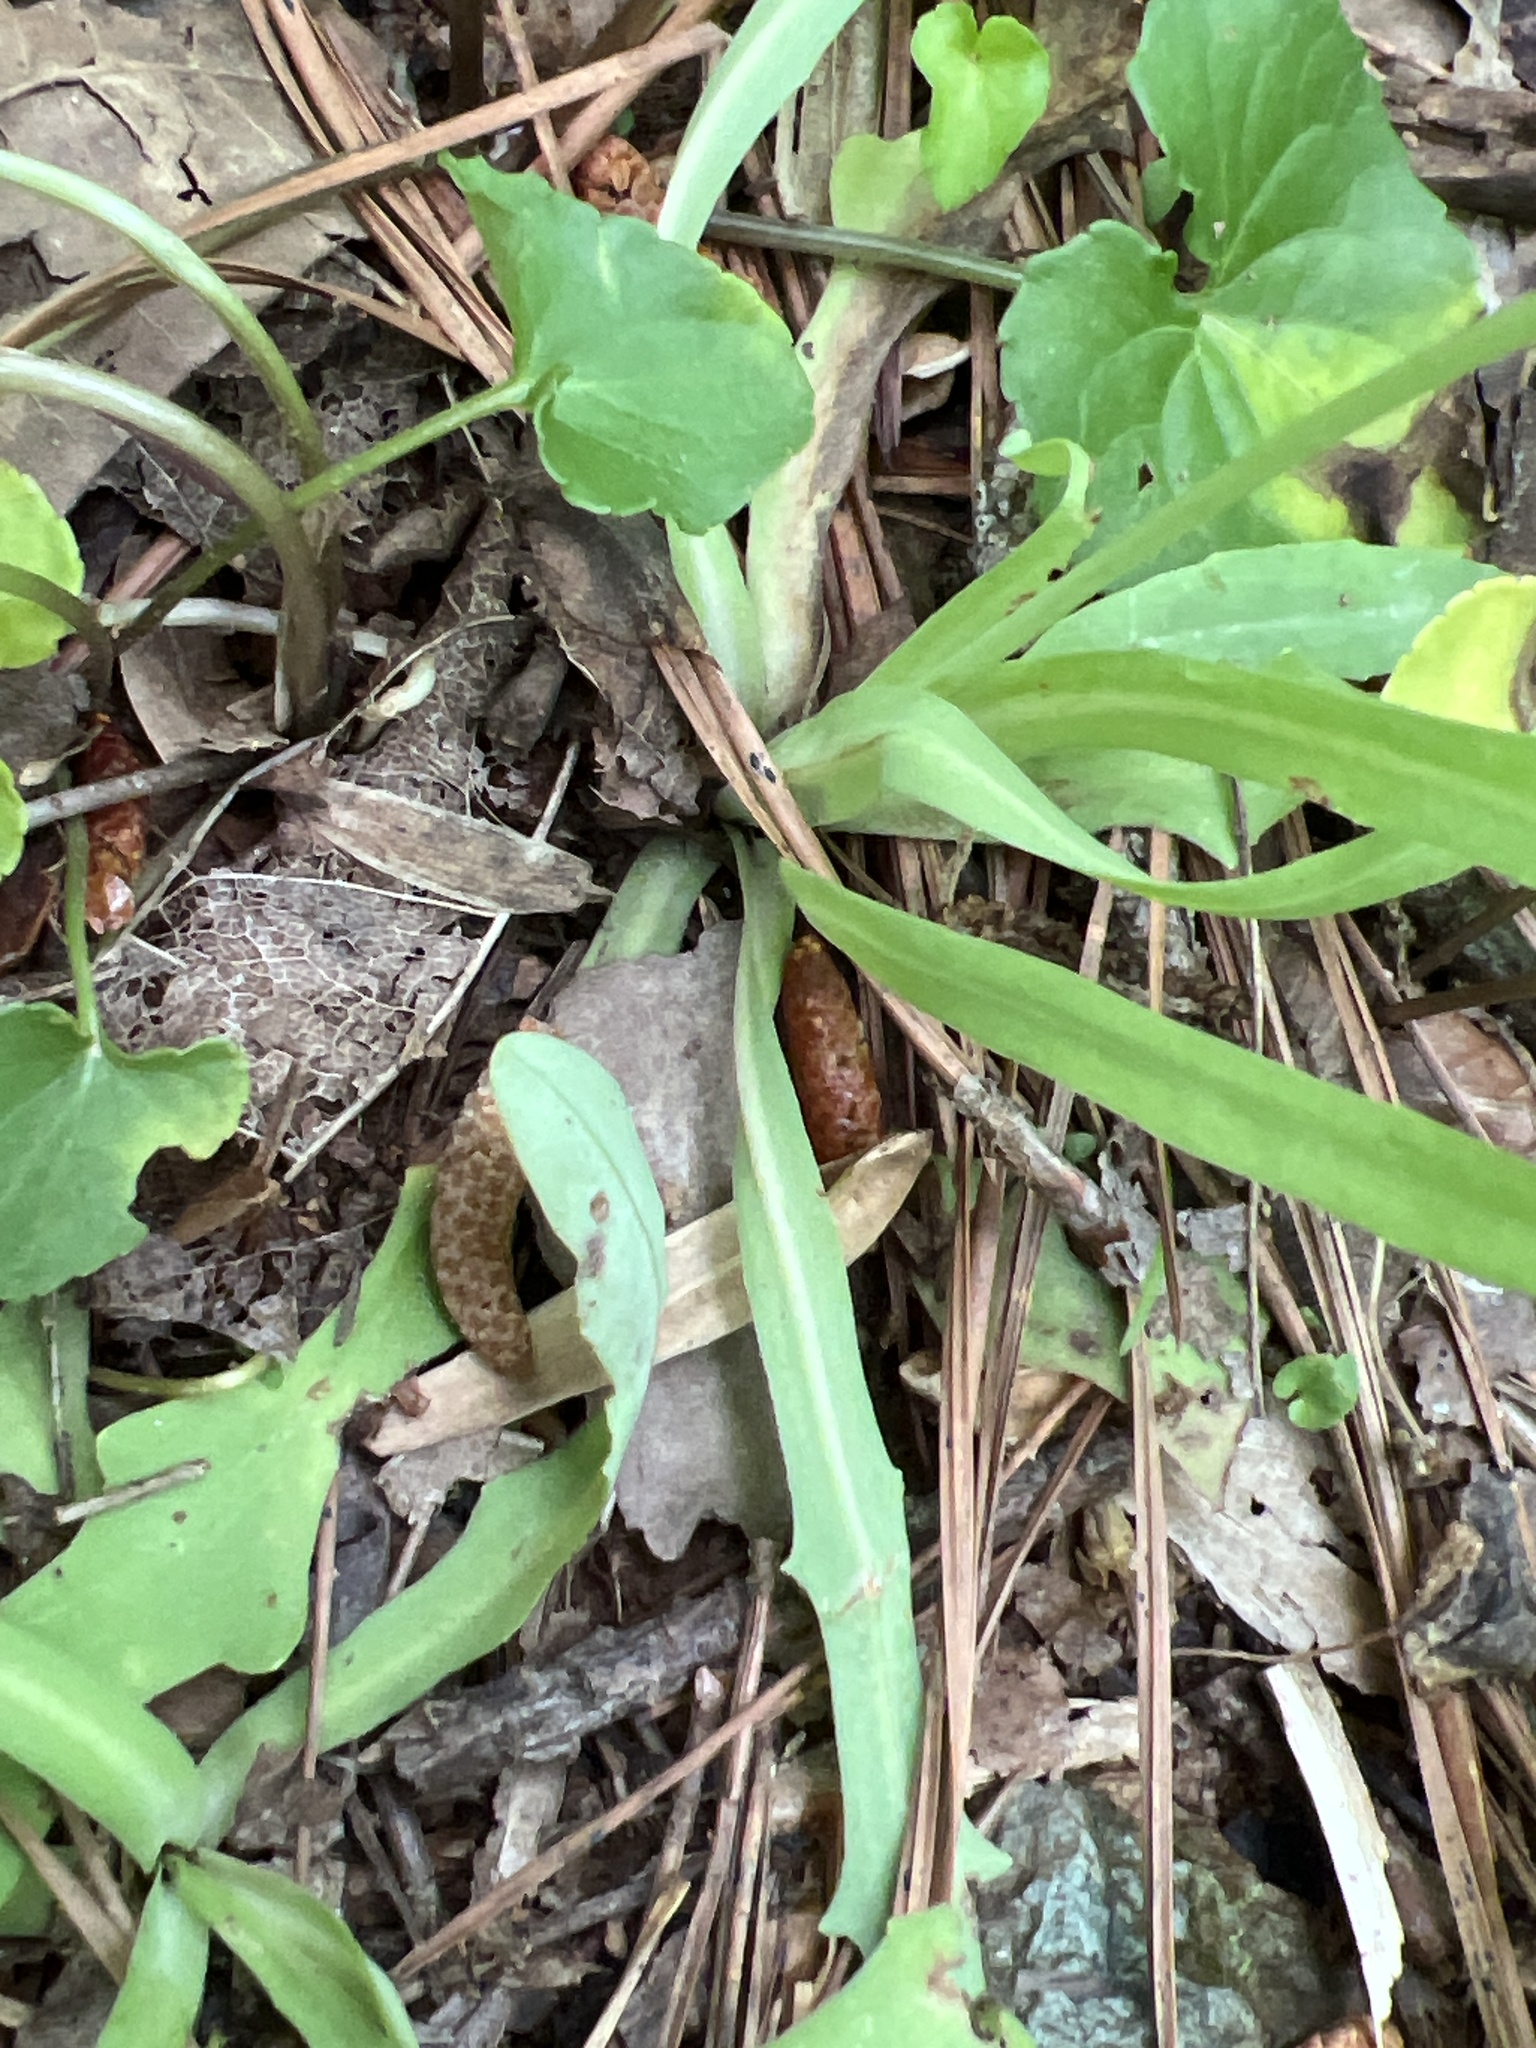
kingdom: Plantae
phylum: Tracheophyta
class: Magnoliopsida
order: Asterales
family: Asteraceae
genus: Krigia
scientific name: Krigia dandelion
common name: Colonial dwarf-dandelion
